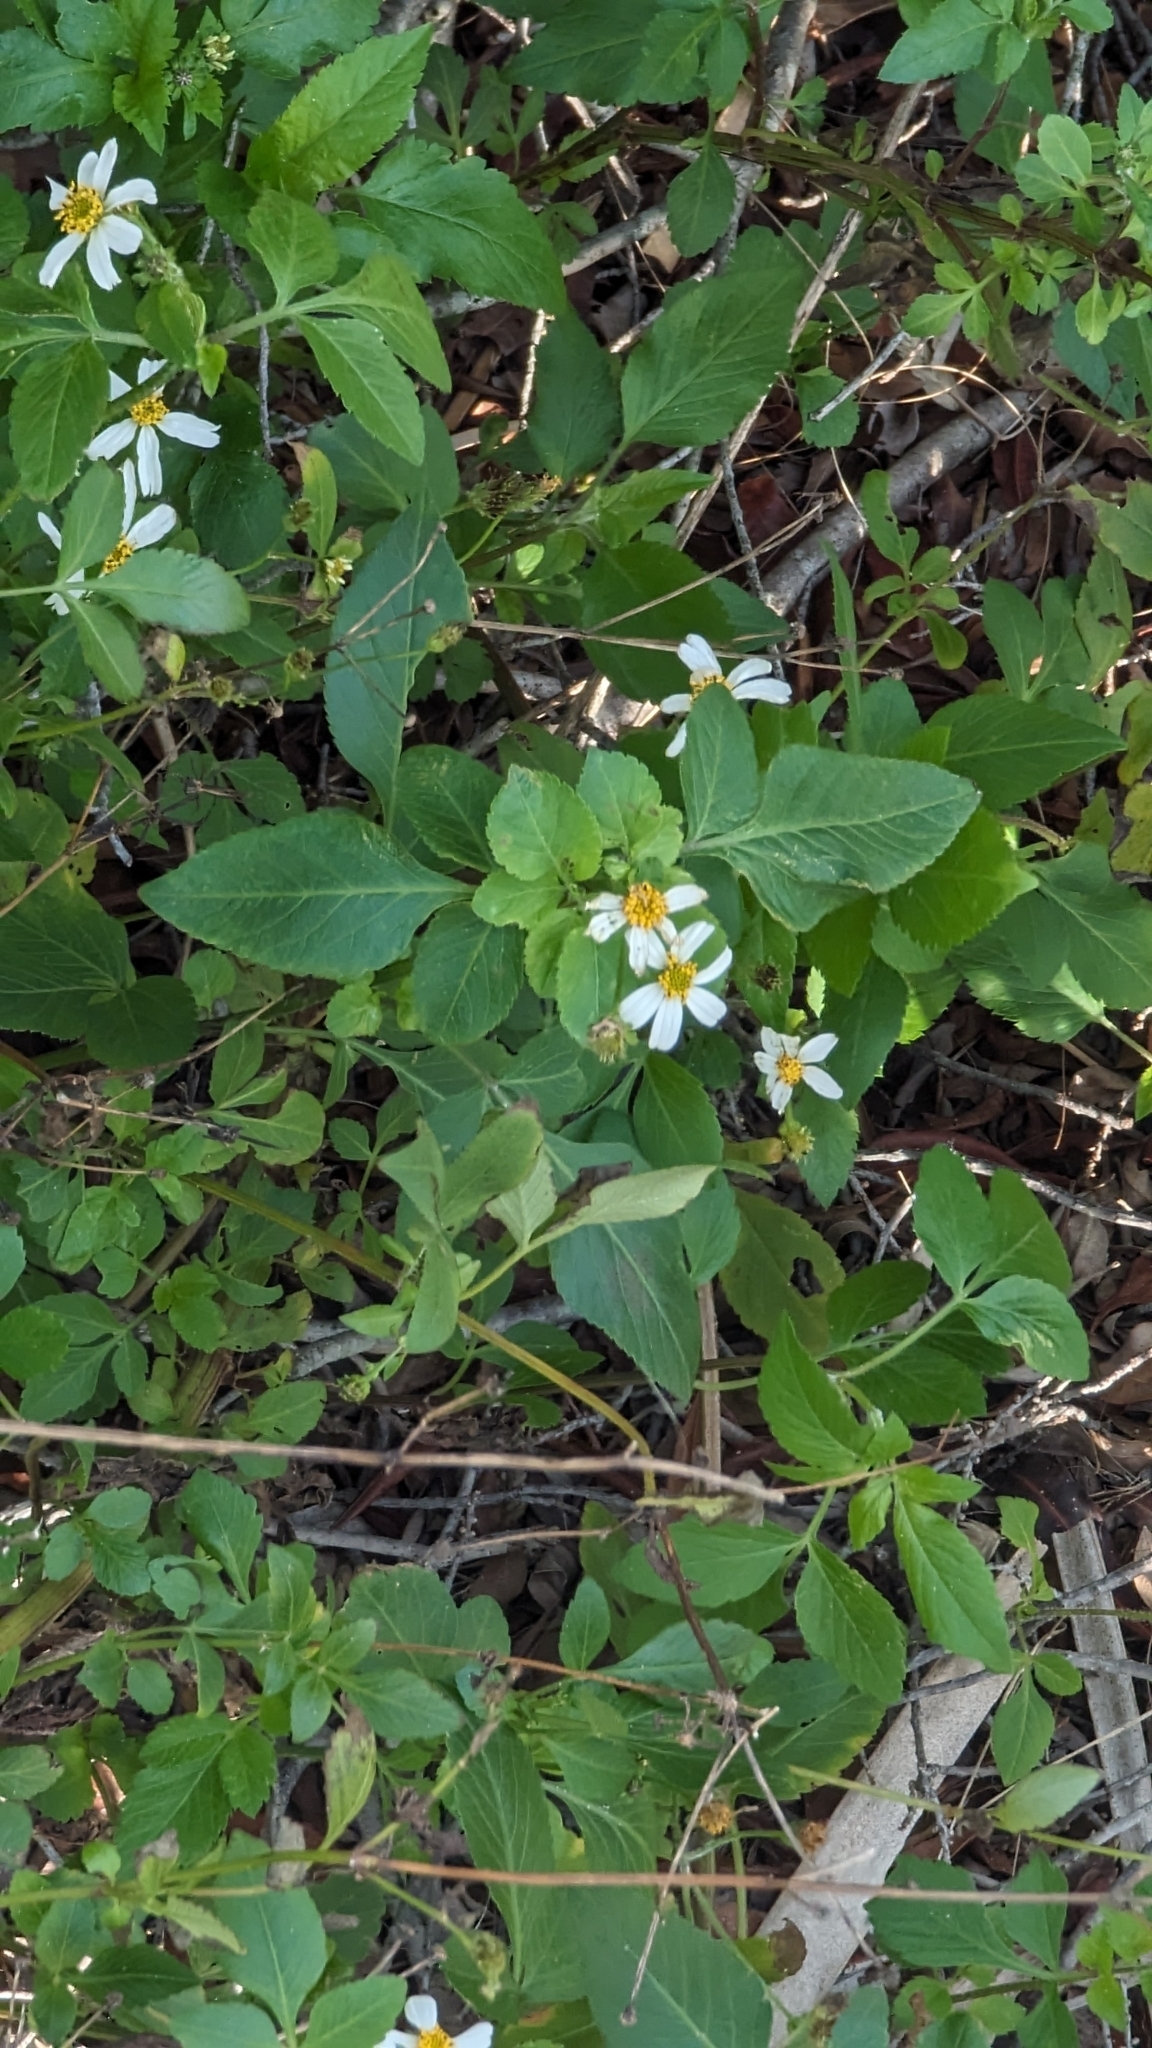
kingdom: Plantae
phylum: Tracheophyta
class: Magnoliopsida
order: Asterales
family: Asteraceae
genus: Bidens
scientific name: Bidens alba
